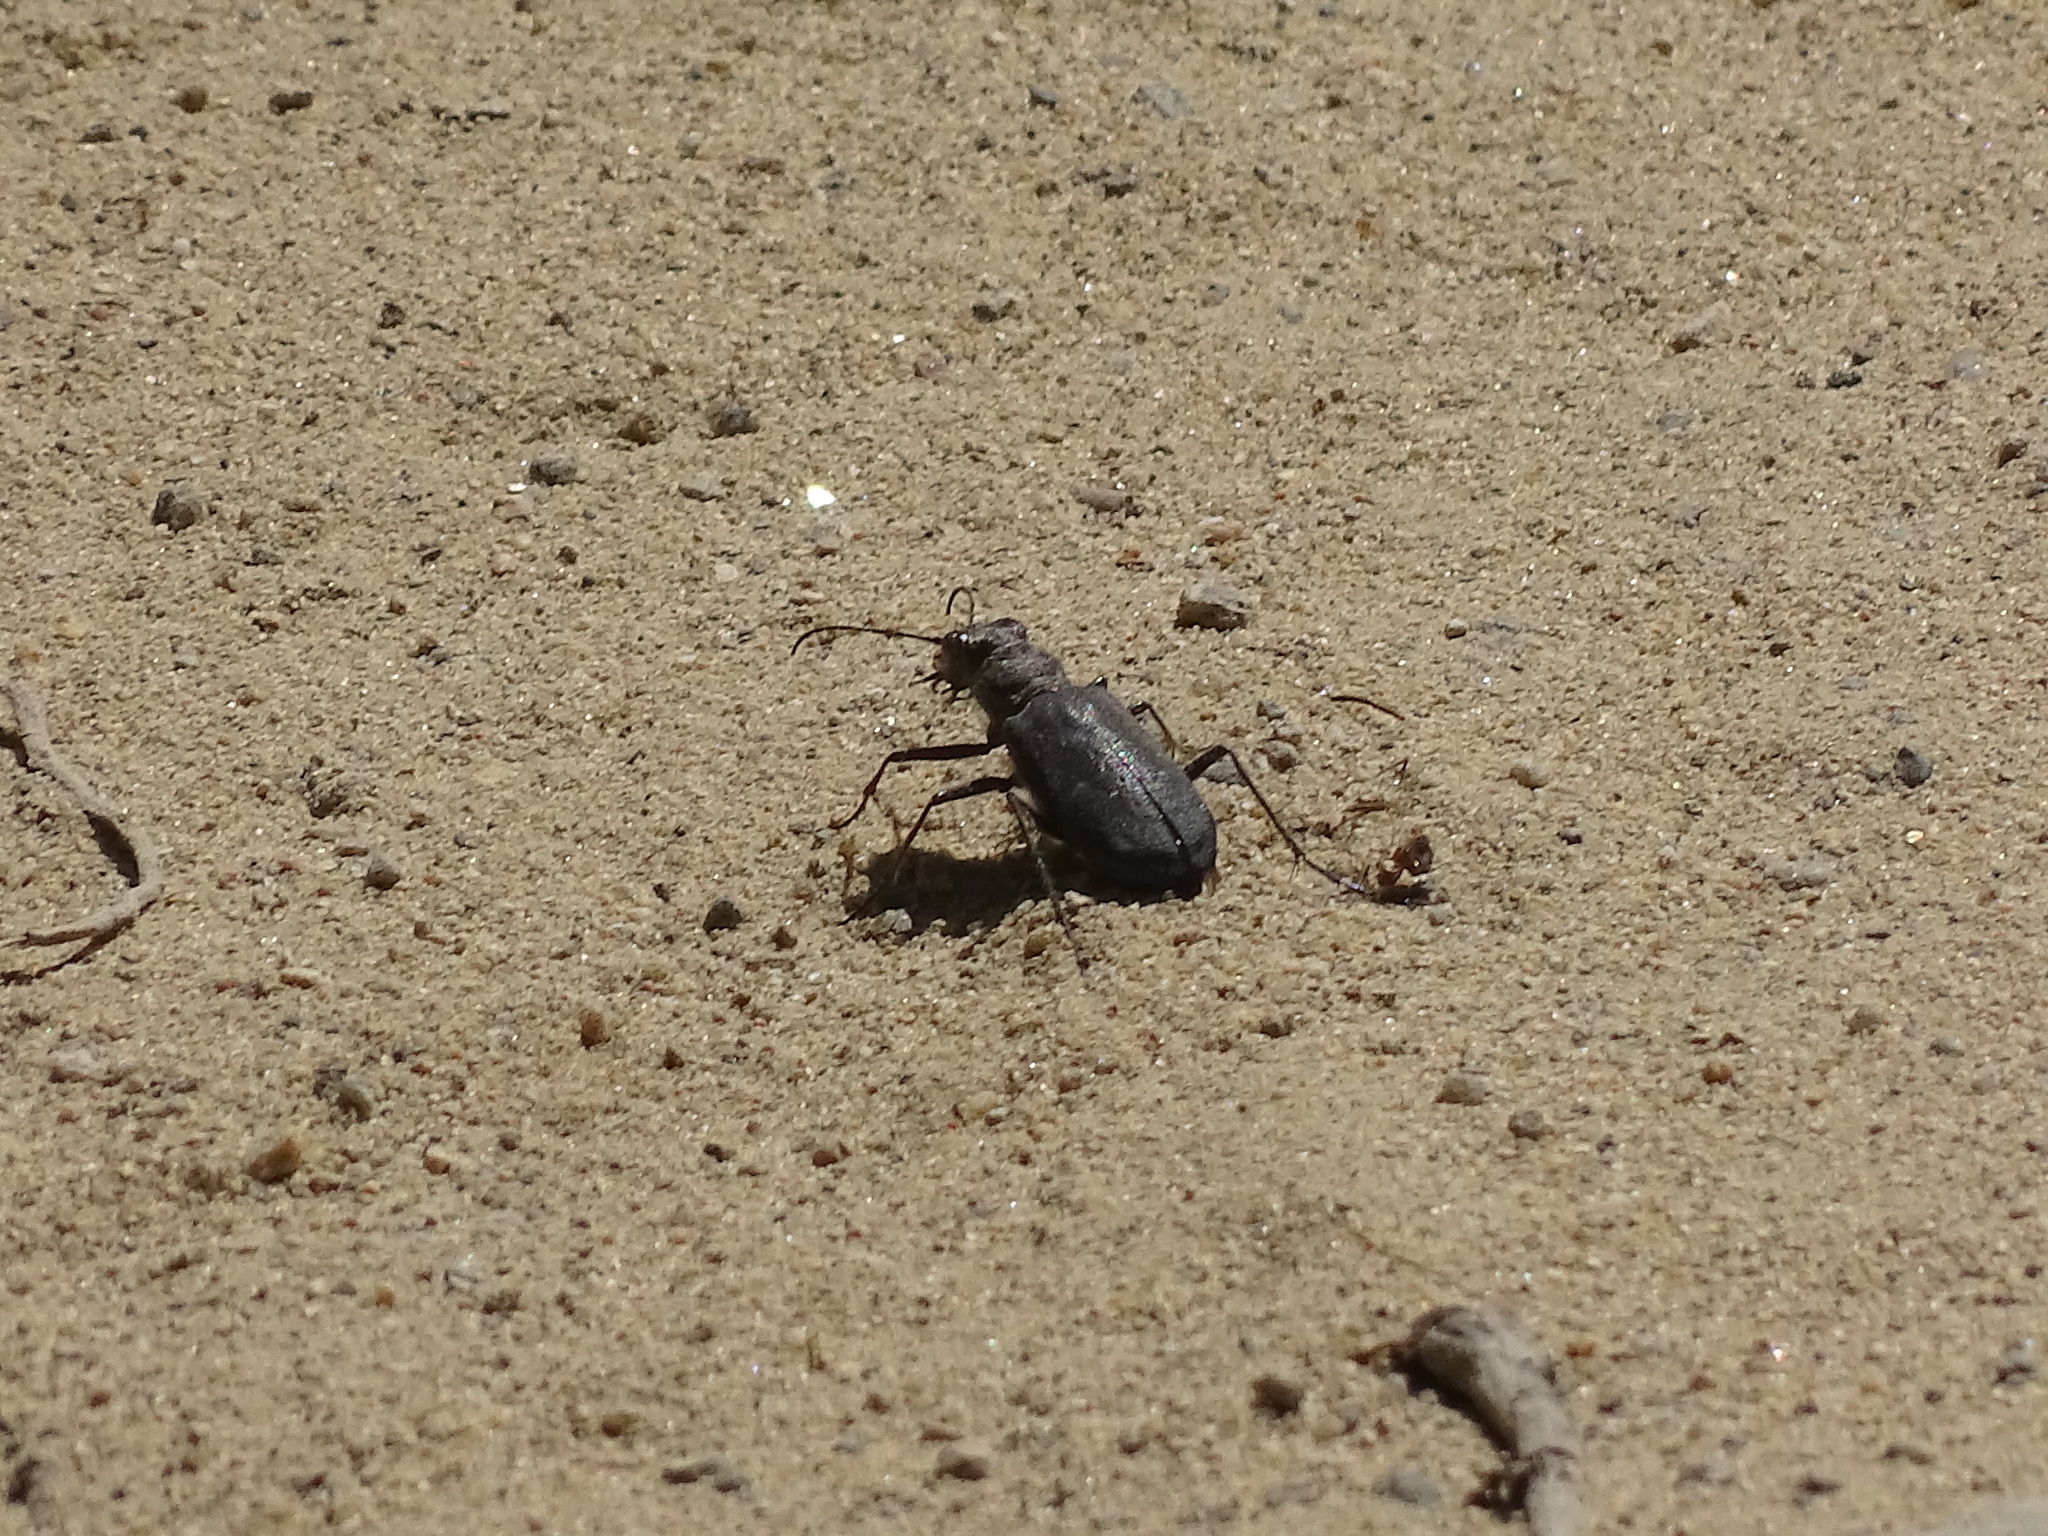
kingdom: Animalia
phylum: Arthropoda
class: Insecta
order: Coleoptera
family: Carabidae
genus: Cicindela
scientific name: Cicindela longilabris
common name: Boreal long-lipped tiger beetle
